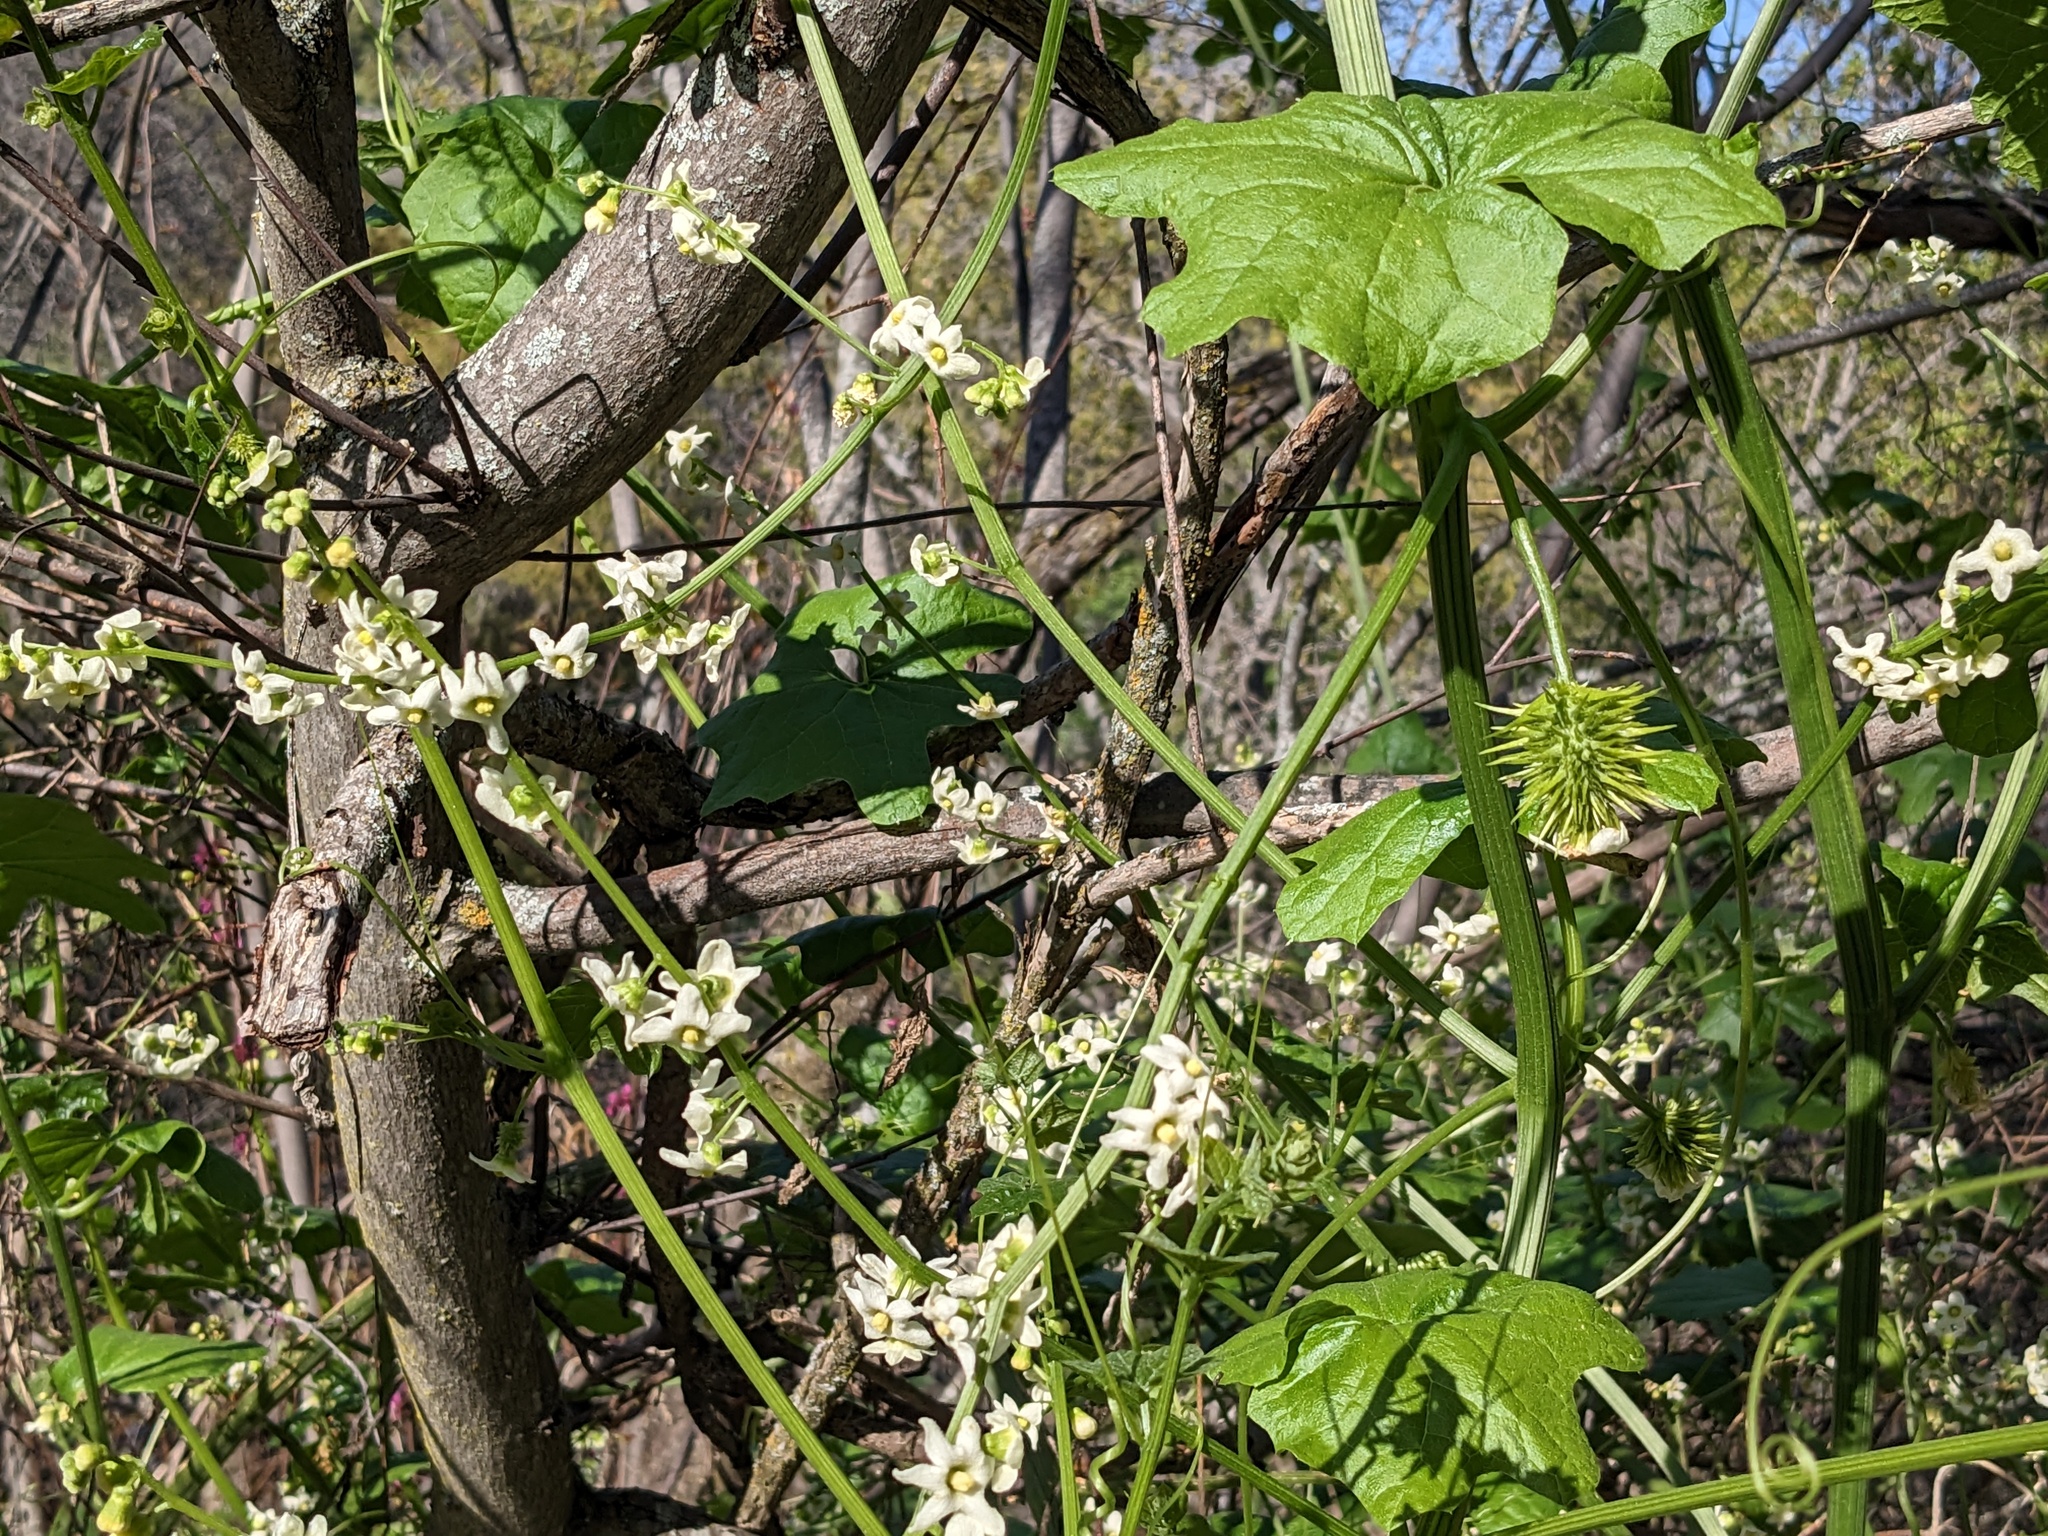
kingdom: Plantae
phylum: Tracheophyta
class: Magnoliopsida
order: Cucurbitales
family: Cucurbitaceae
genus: Marah
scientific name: Marah horrida
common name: Sierra manroot
